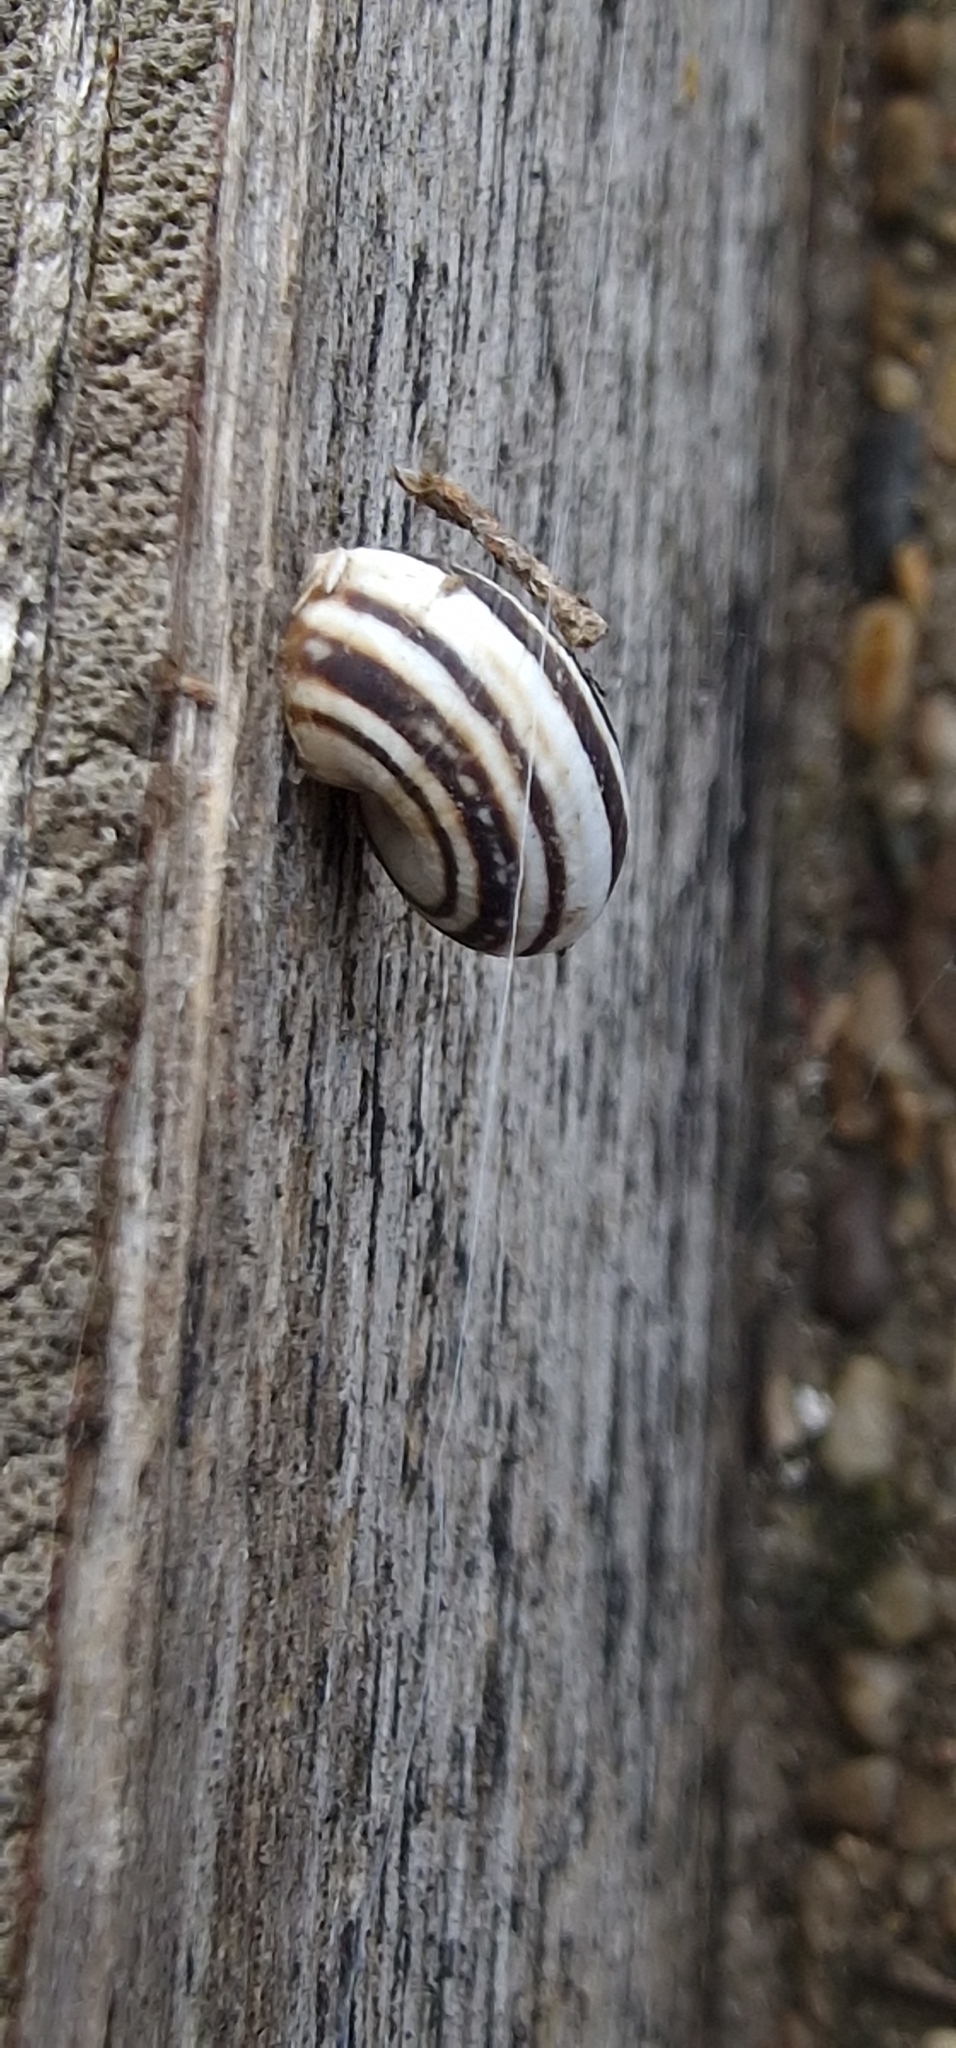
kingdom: Animalia
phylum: Mollusca
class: Gastropoda
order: Stylommatophora
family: Geomitridae
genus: Cernuella
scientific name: Cernuella virgata
